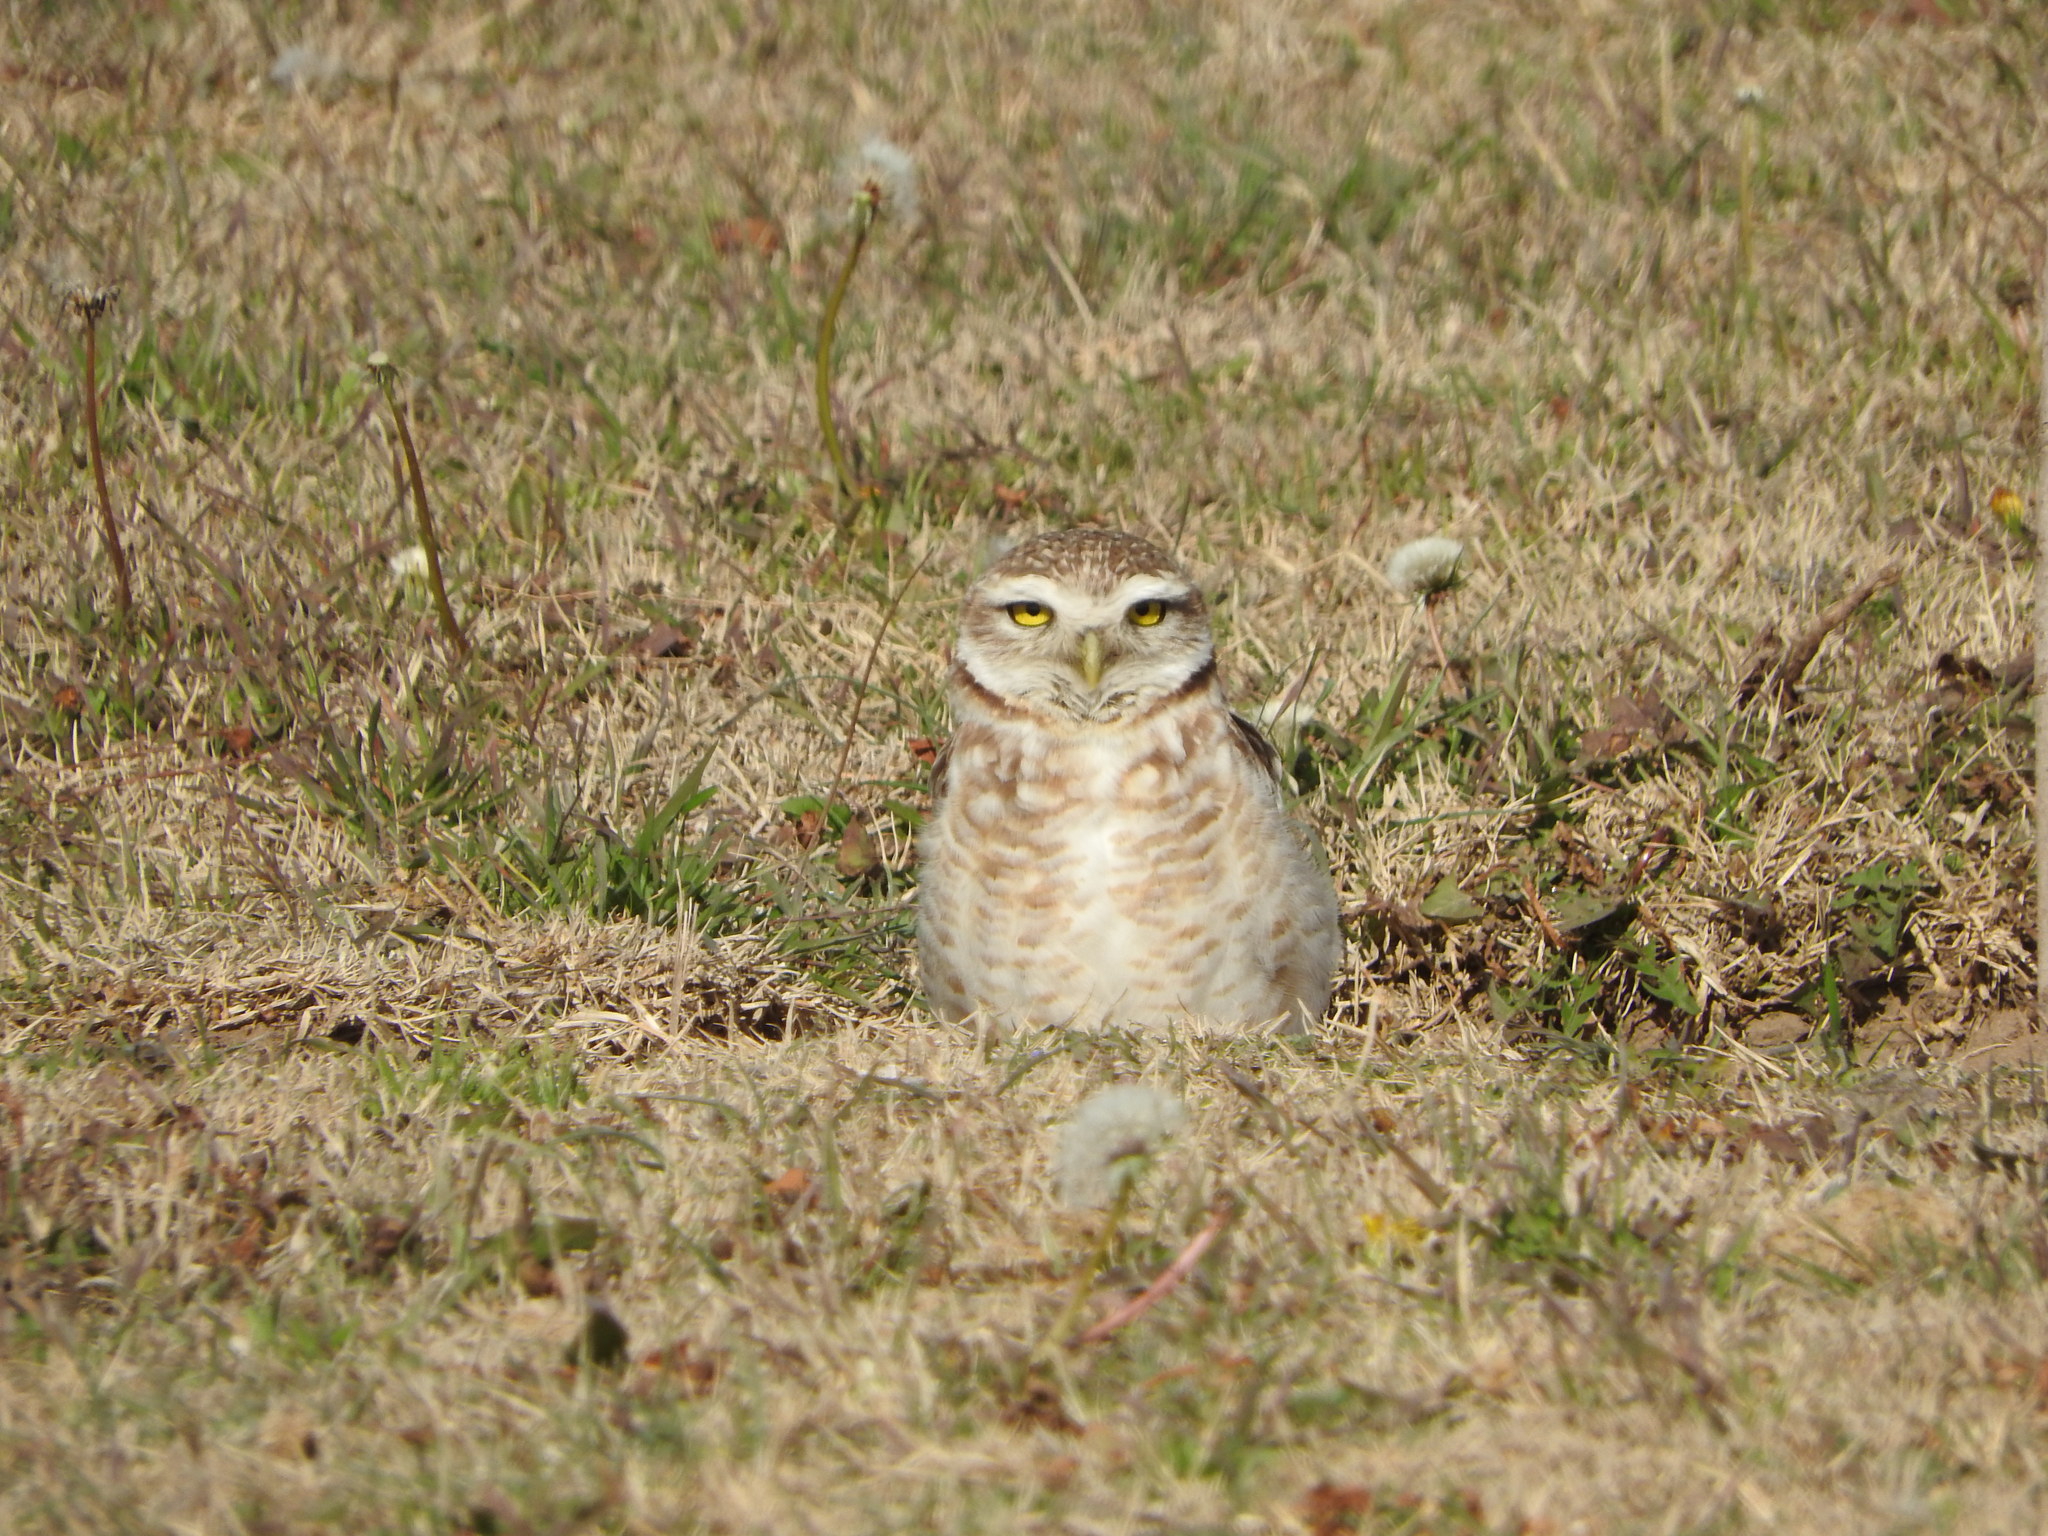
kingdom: Animalia
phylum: Chordata
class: Aves
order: Strigiformes
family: Strigidae
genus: Athene
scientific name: Athene cunicularia
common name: Burrowing owl
